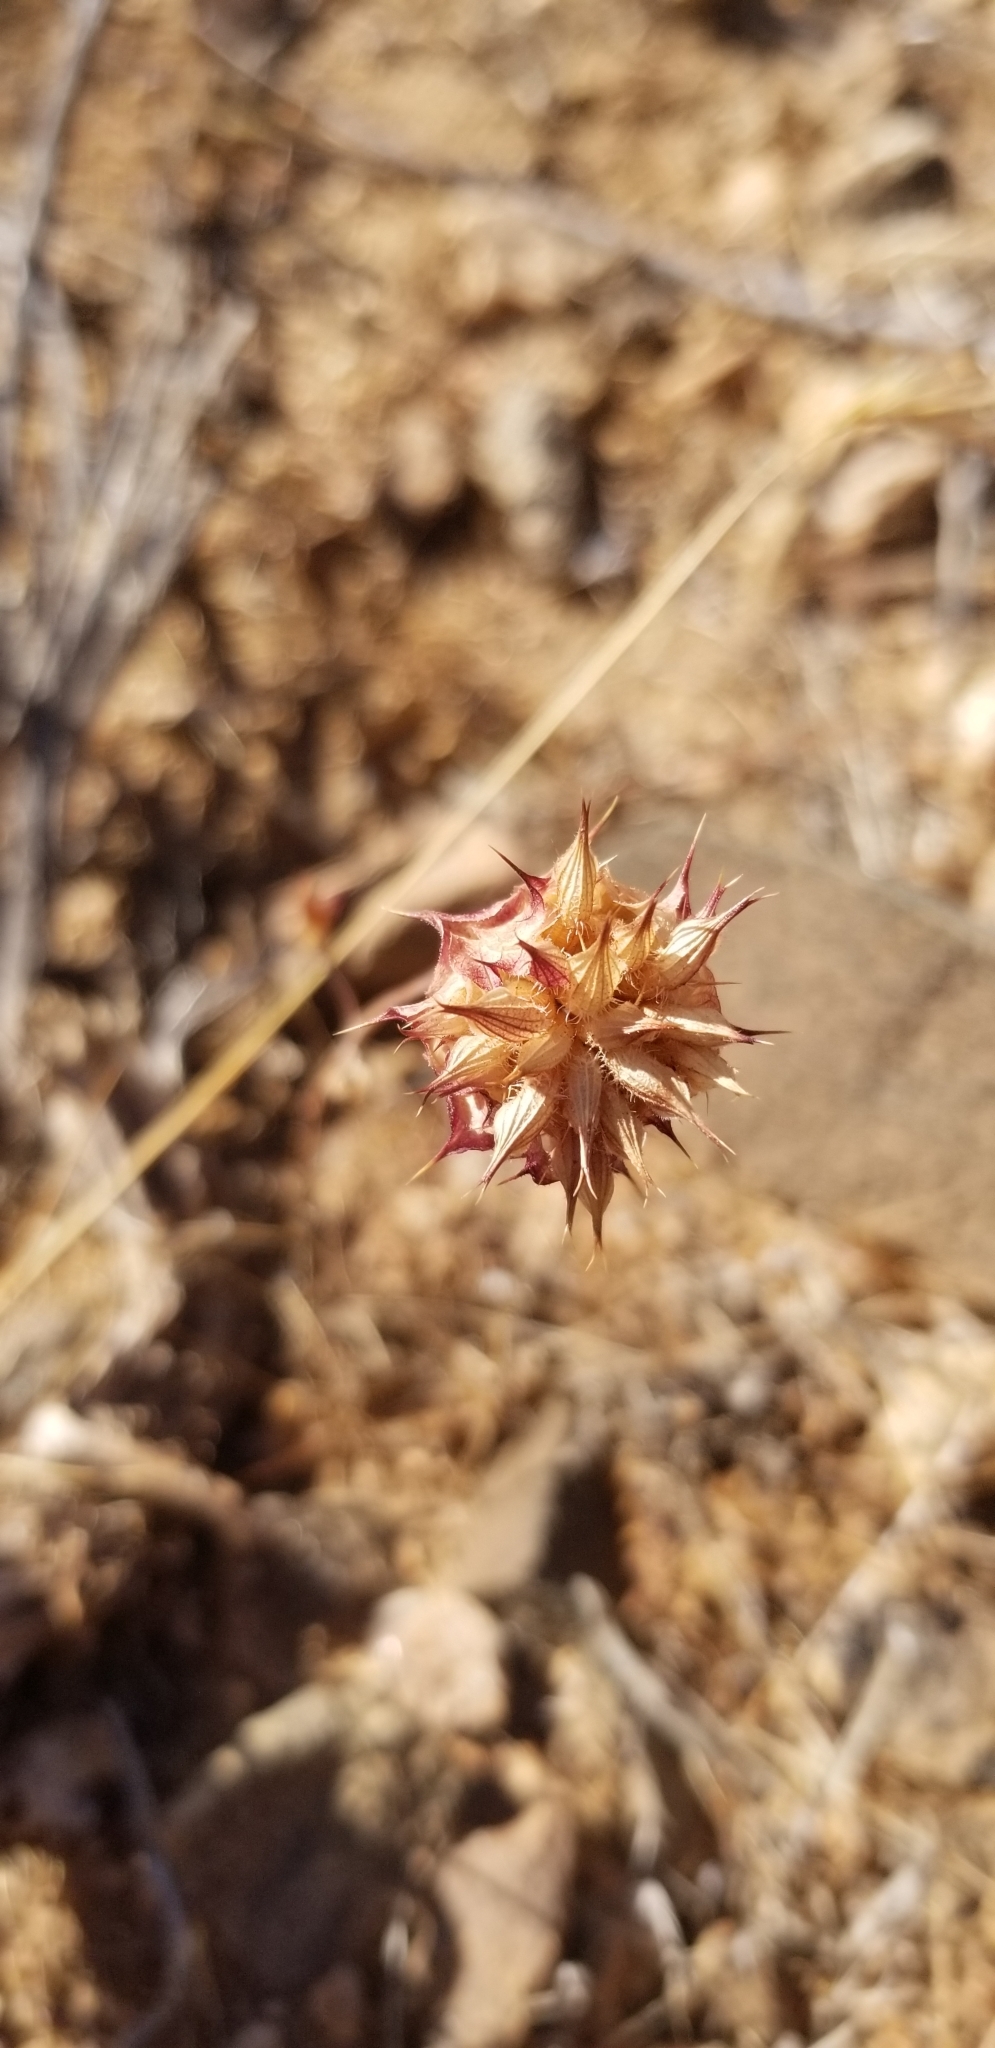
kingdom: Plantae
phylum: Tracheophyta
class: Magnoliopsida
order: Lamiales
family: Lamiaceae
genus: Salvia
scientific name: Salvia columbariae
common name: Chia
